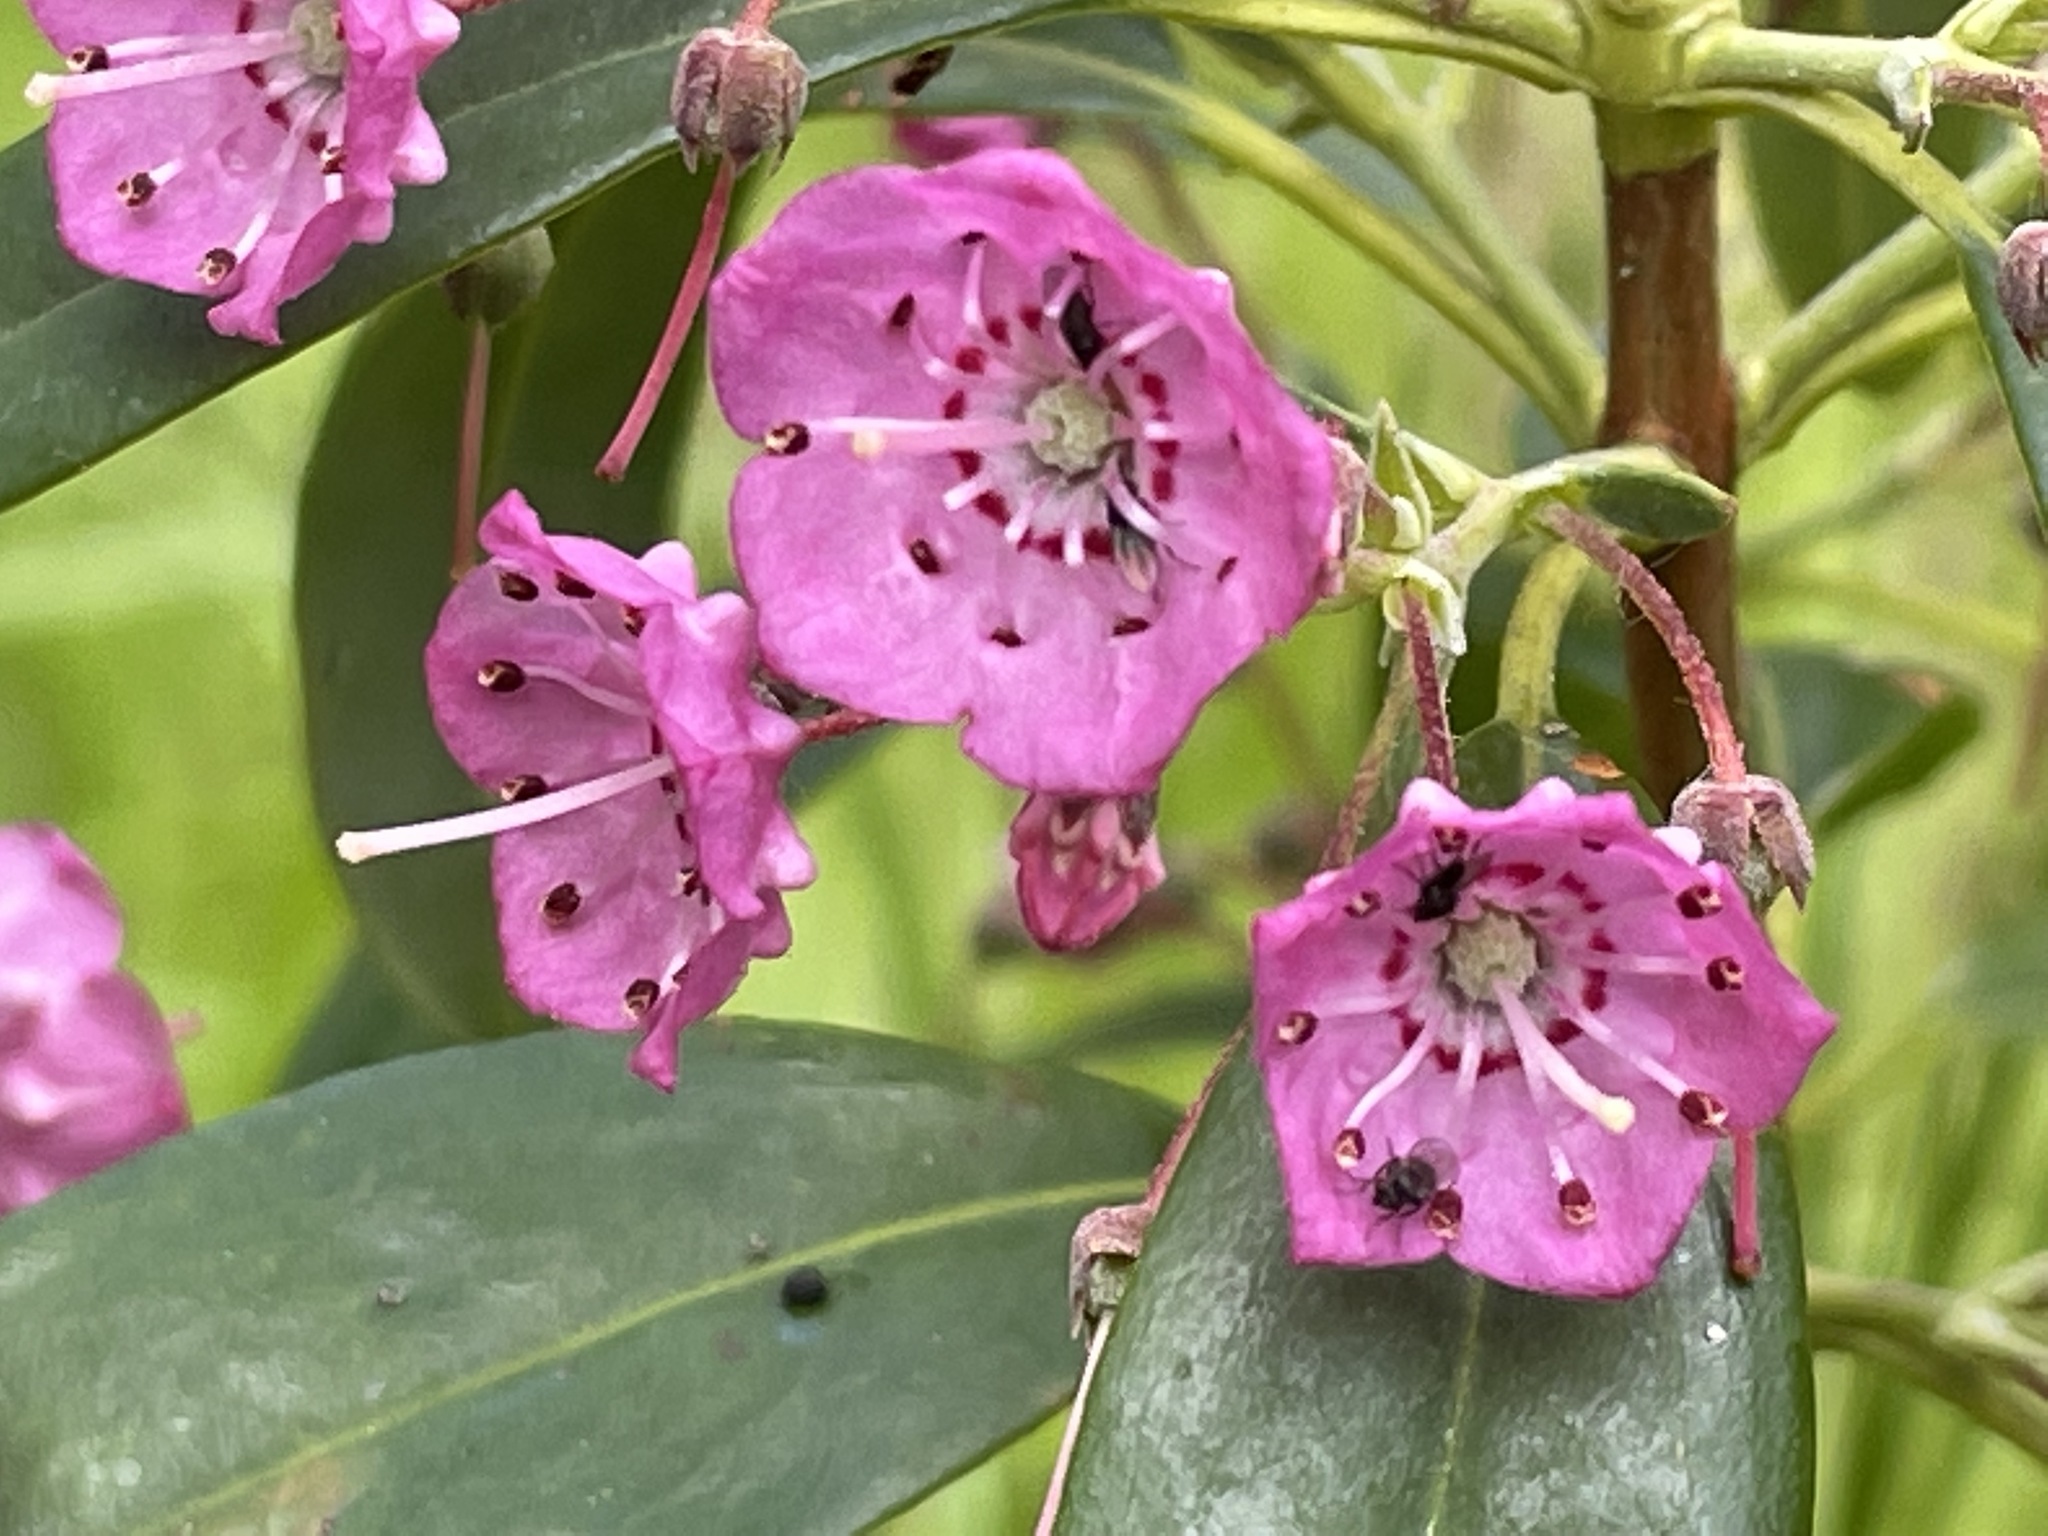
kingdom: Plantae
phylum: Tracheophyta
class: Magnoliopsida
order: Ericales
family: Ericaceae
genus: Kalmia
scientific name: Kalmia angustifolia
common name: Sheep-laurel
